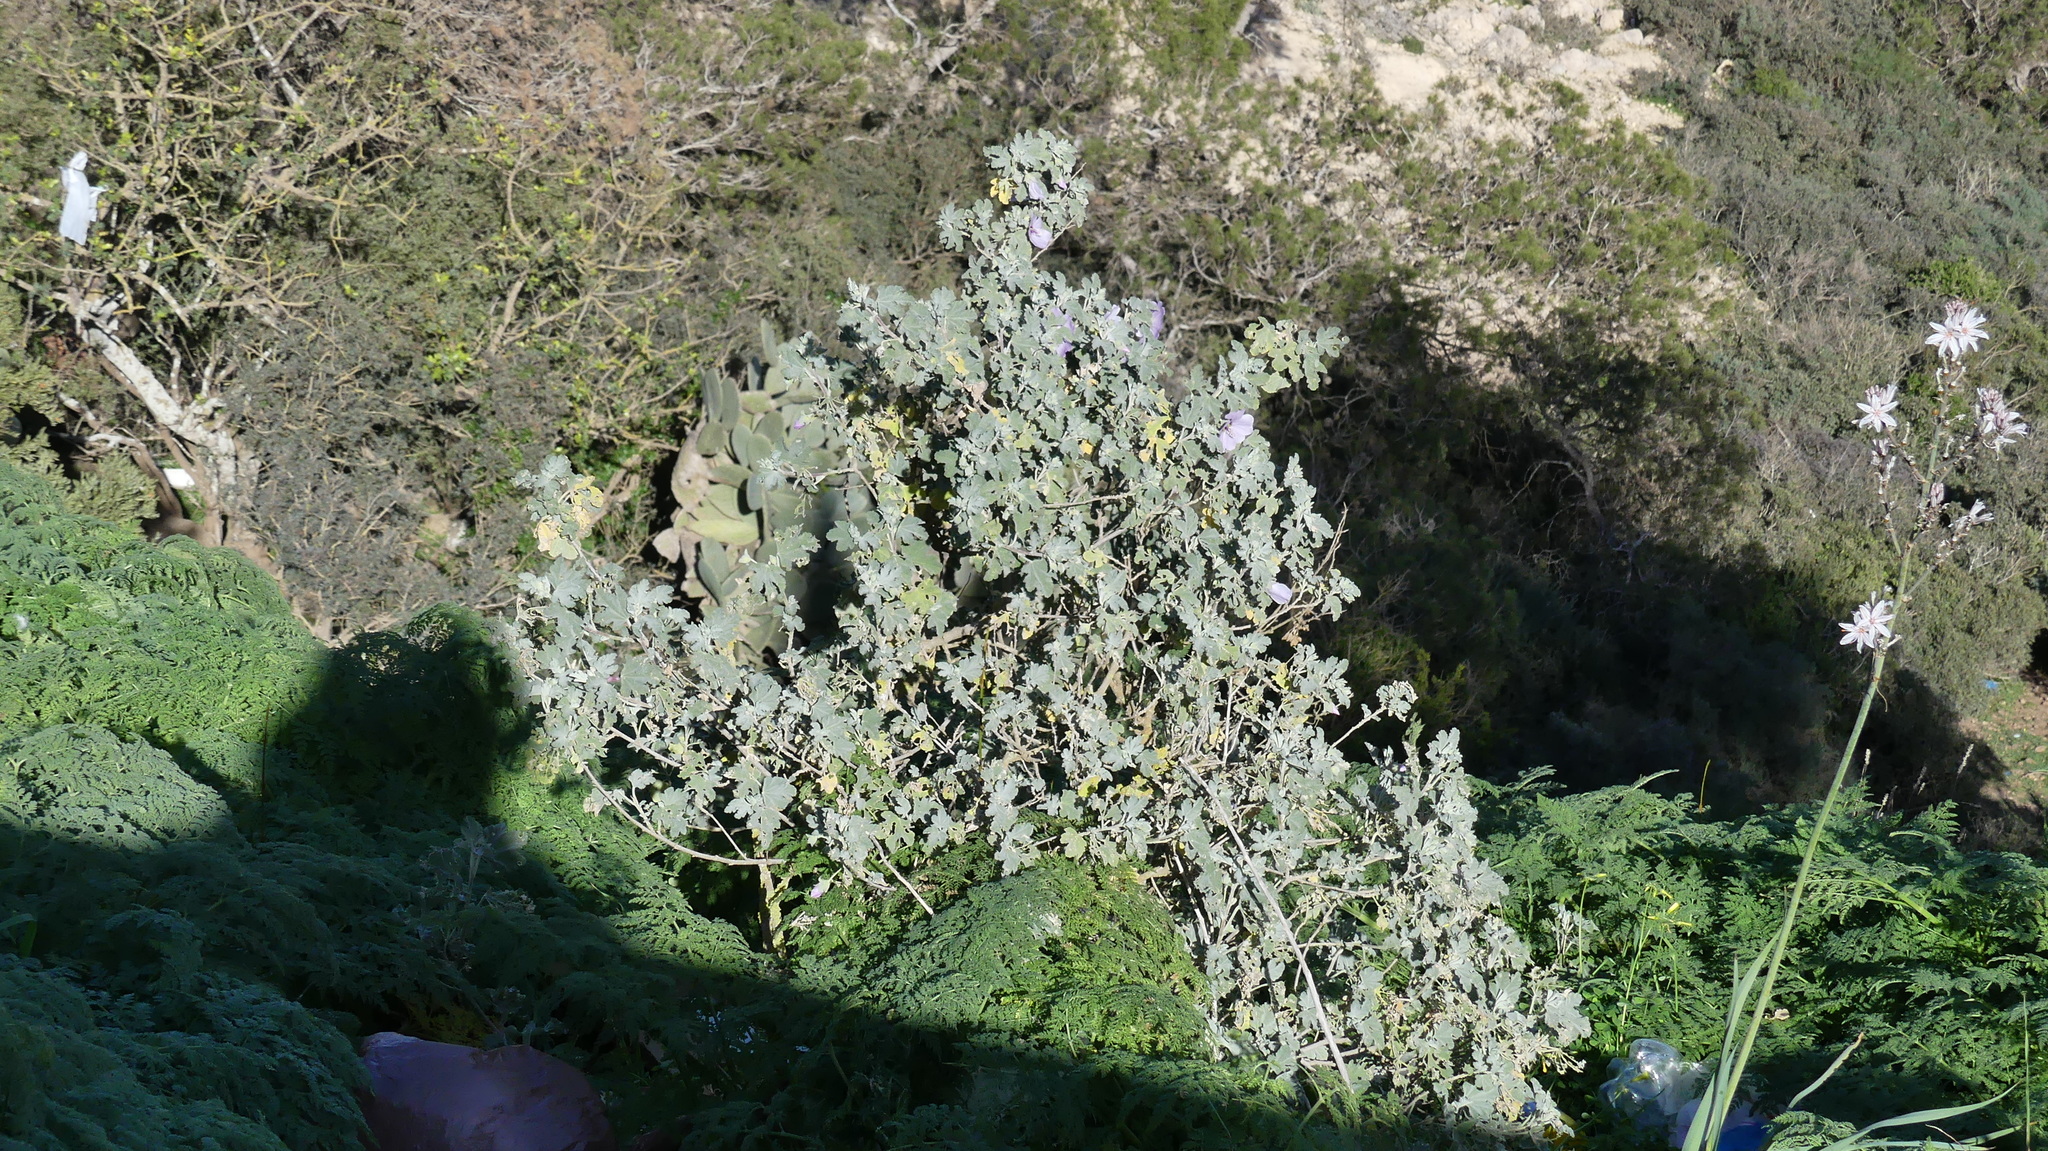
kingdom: Plantae
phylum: Tracheophyta
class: Magnoliopsida
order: Malvales
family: Malvaceae
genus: Malva
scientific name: Malva subovata
